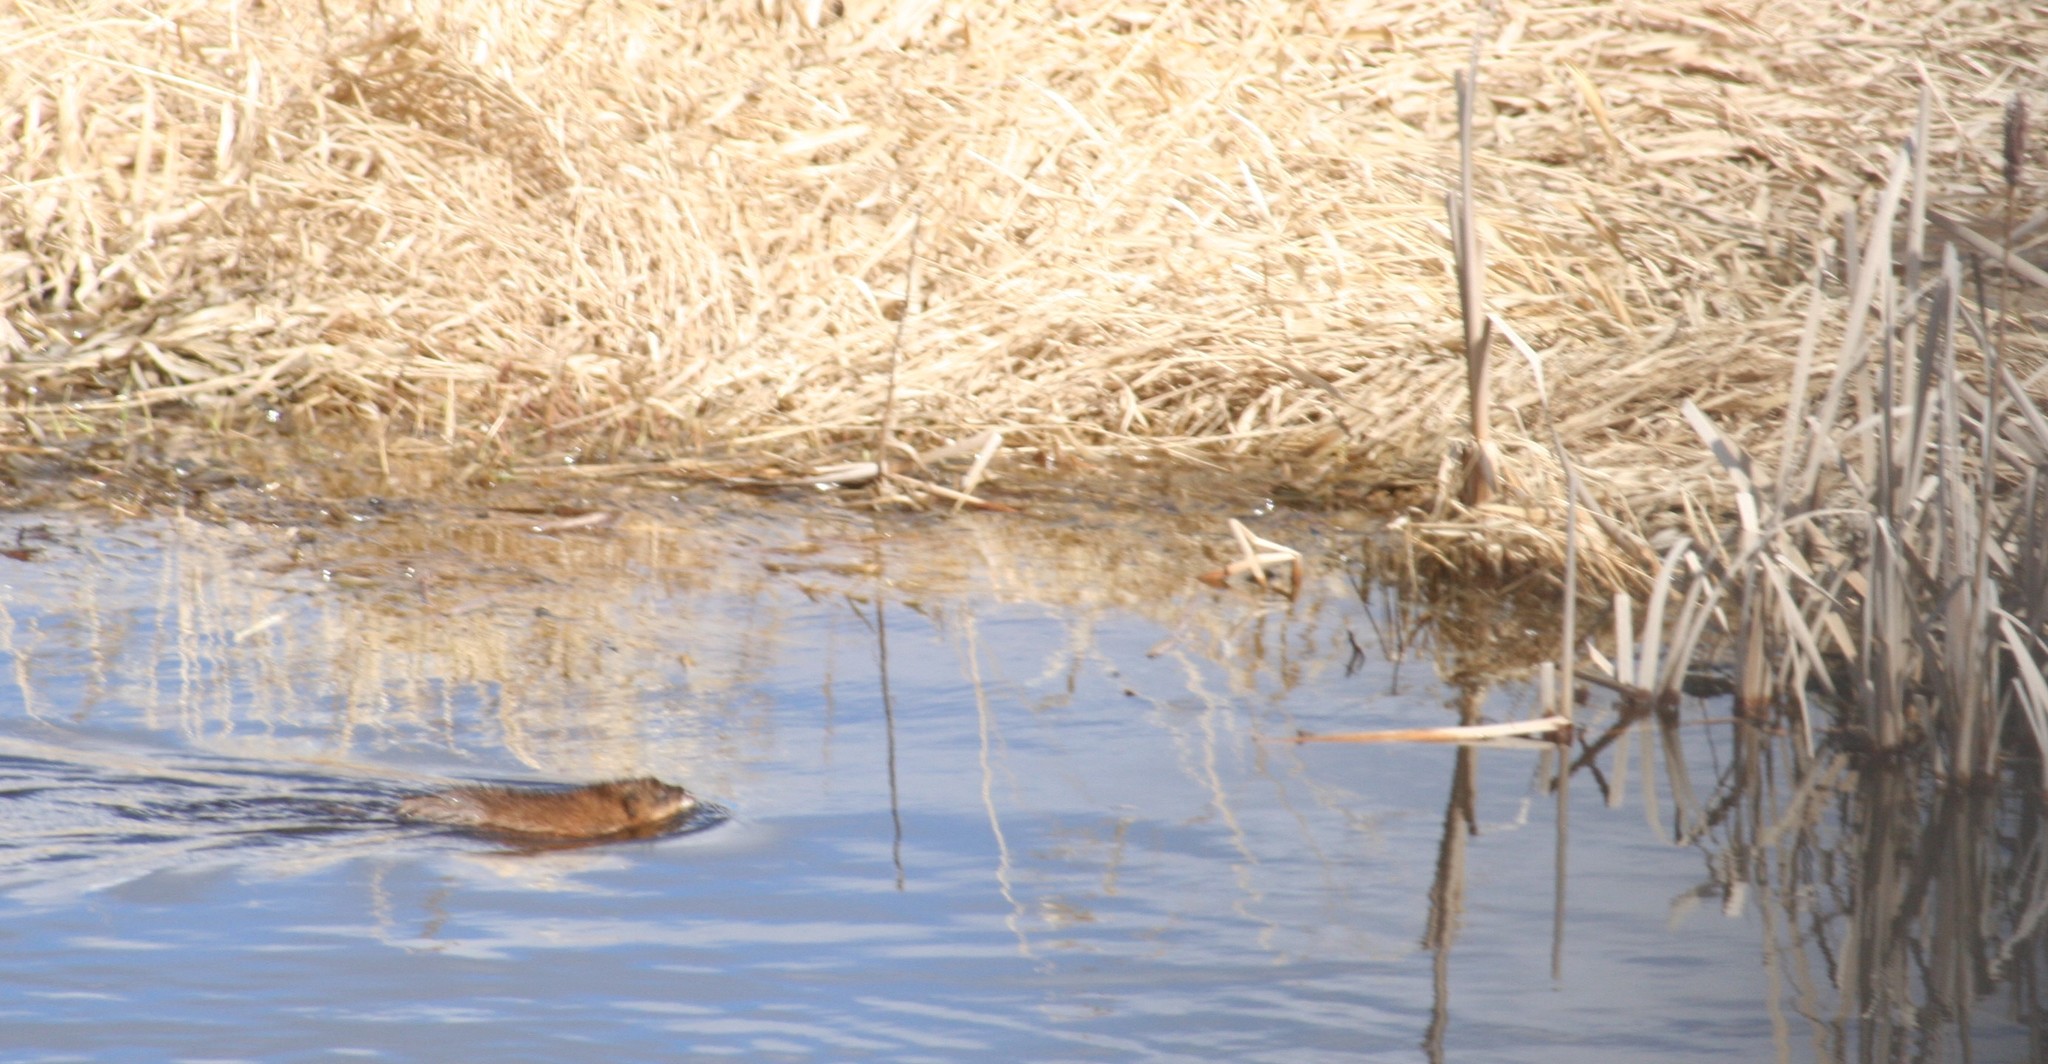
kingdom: Animalia
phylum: Chordata
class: Mammalia
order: Rodentia
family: Cricetidae
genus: Ondatra
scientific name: Ondatra zibethicus
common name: Muskrat
